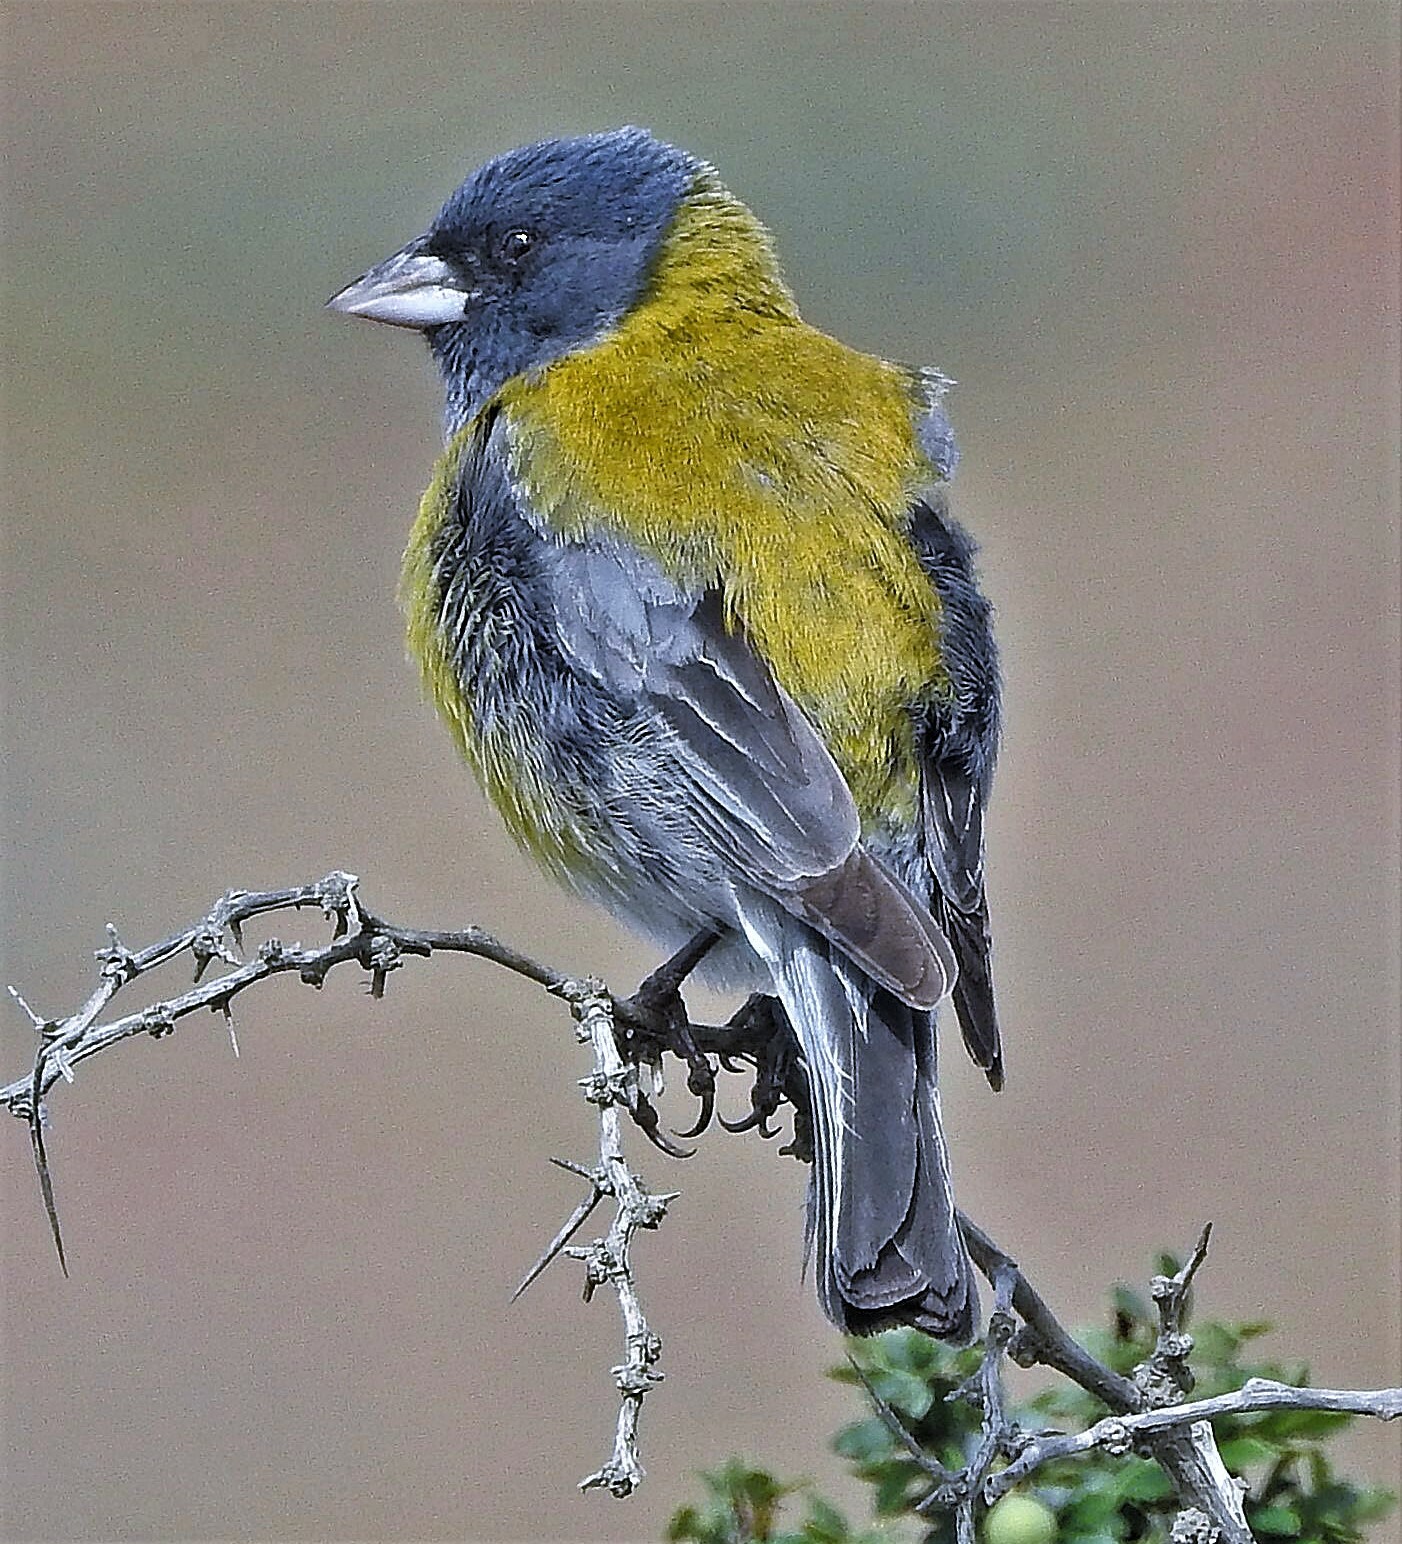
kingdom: Animalia
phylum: Chordata
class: Aves
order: Passeriformes
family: Thraupidae
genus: Phrygilus
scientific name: Phrygilus gayi
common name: Grey-hooded sierra finch
